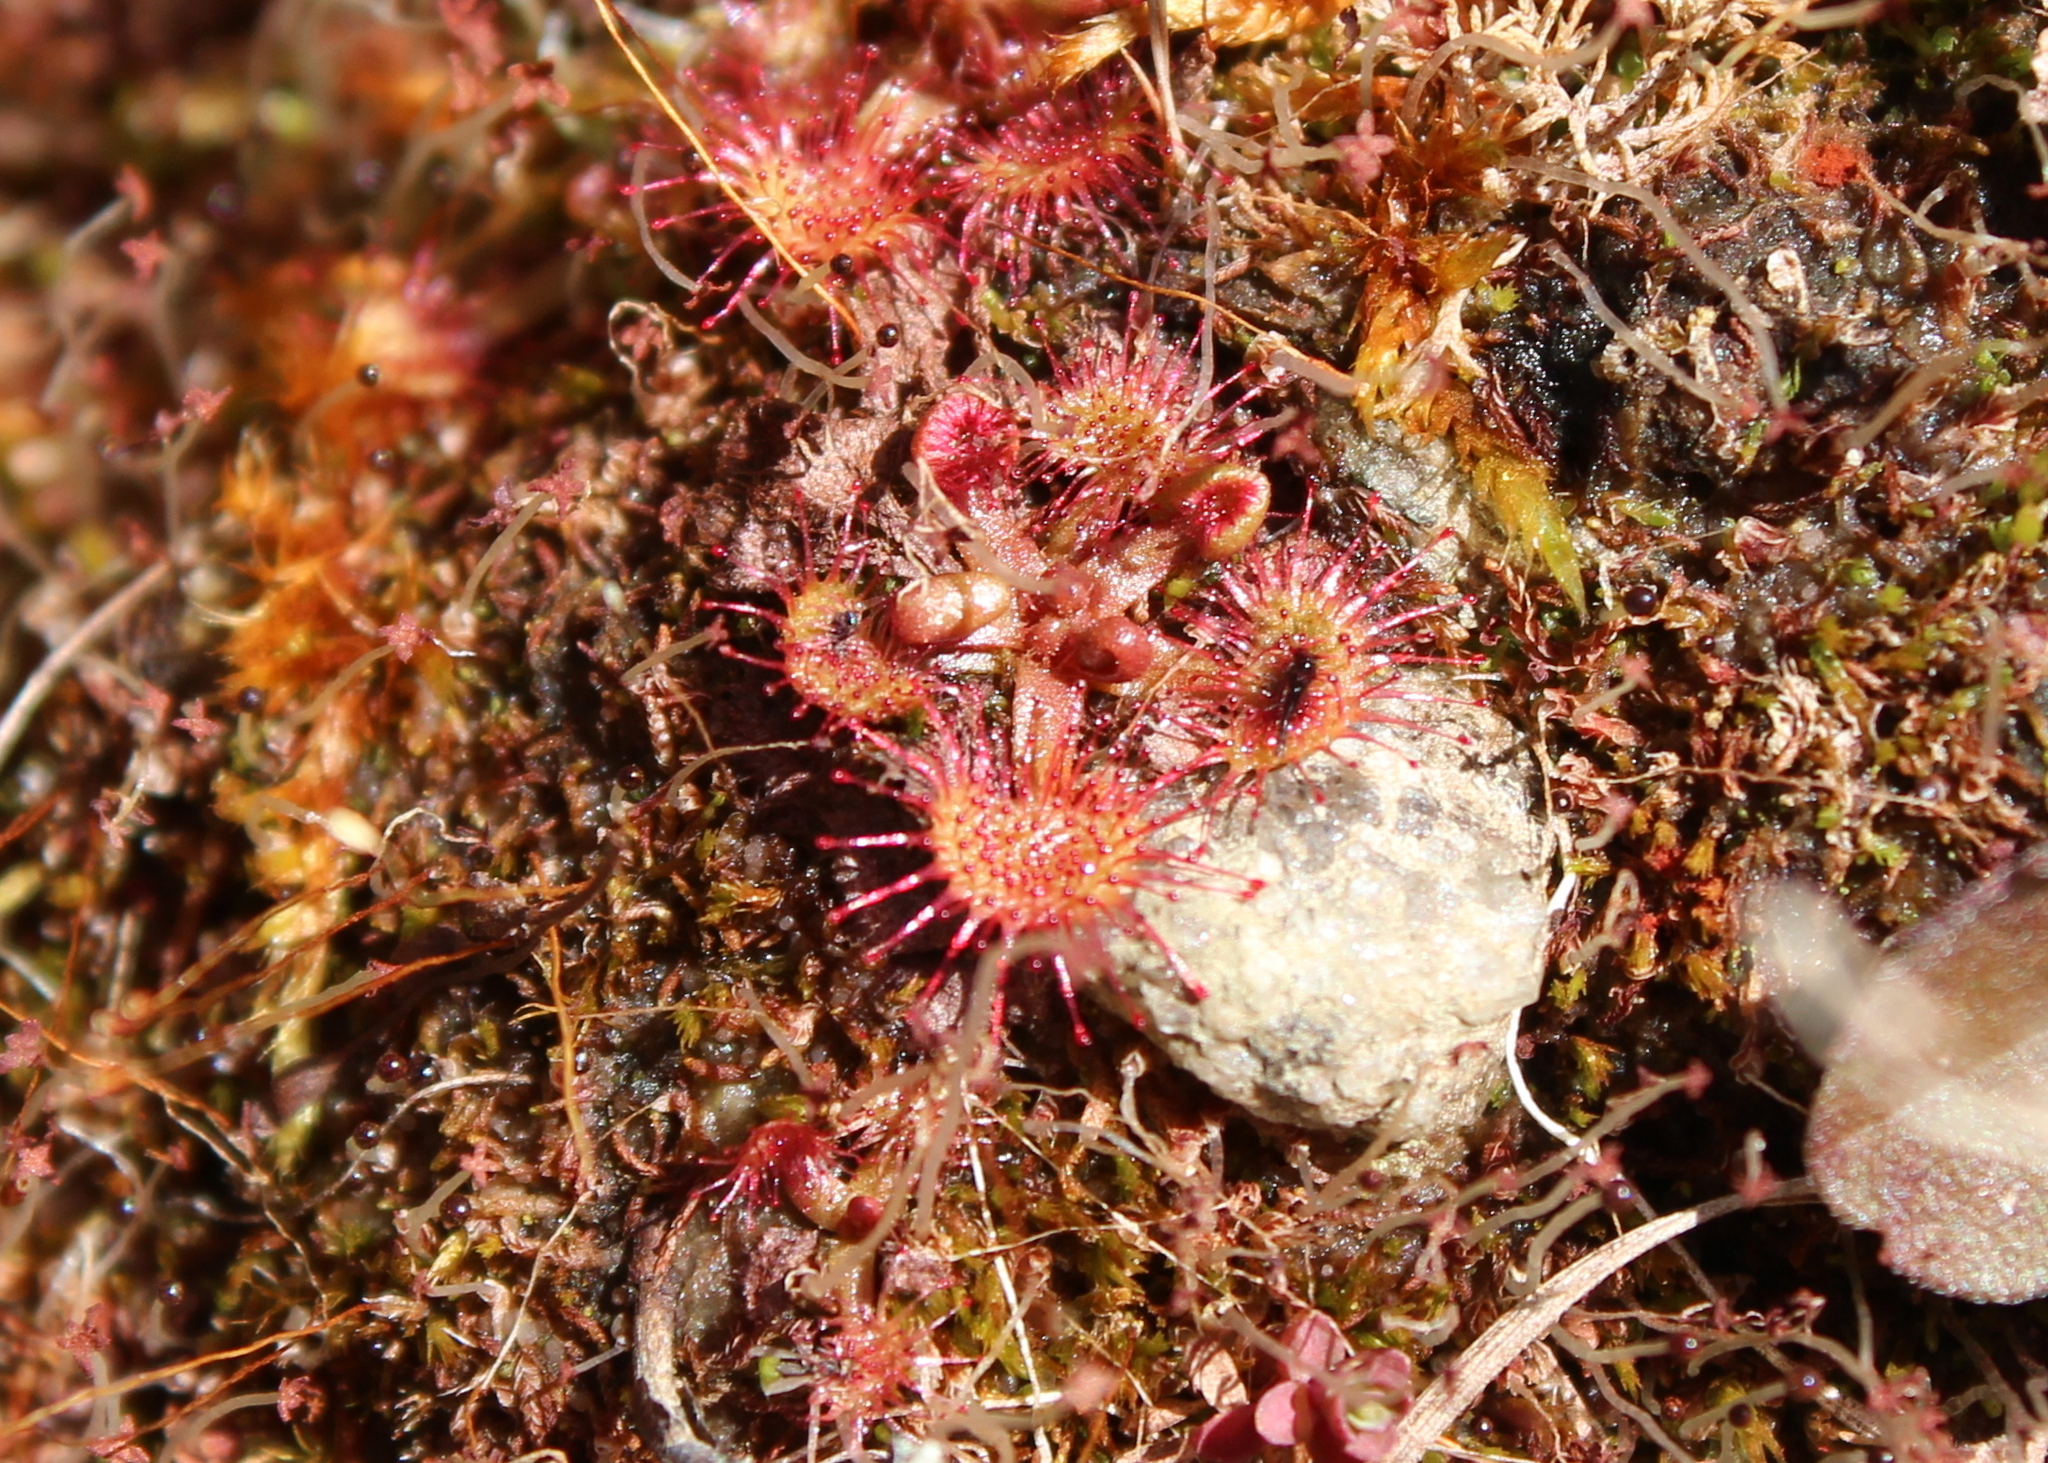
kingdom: Plantae
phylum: Tracheophyta
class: Magnoliopsida
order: Caryophyllales
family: Droseraceae
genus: Drosera
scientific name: Drosera rotundifolia
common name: Round-leaved sundew
